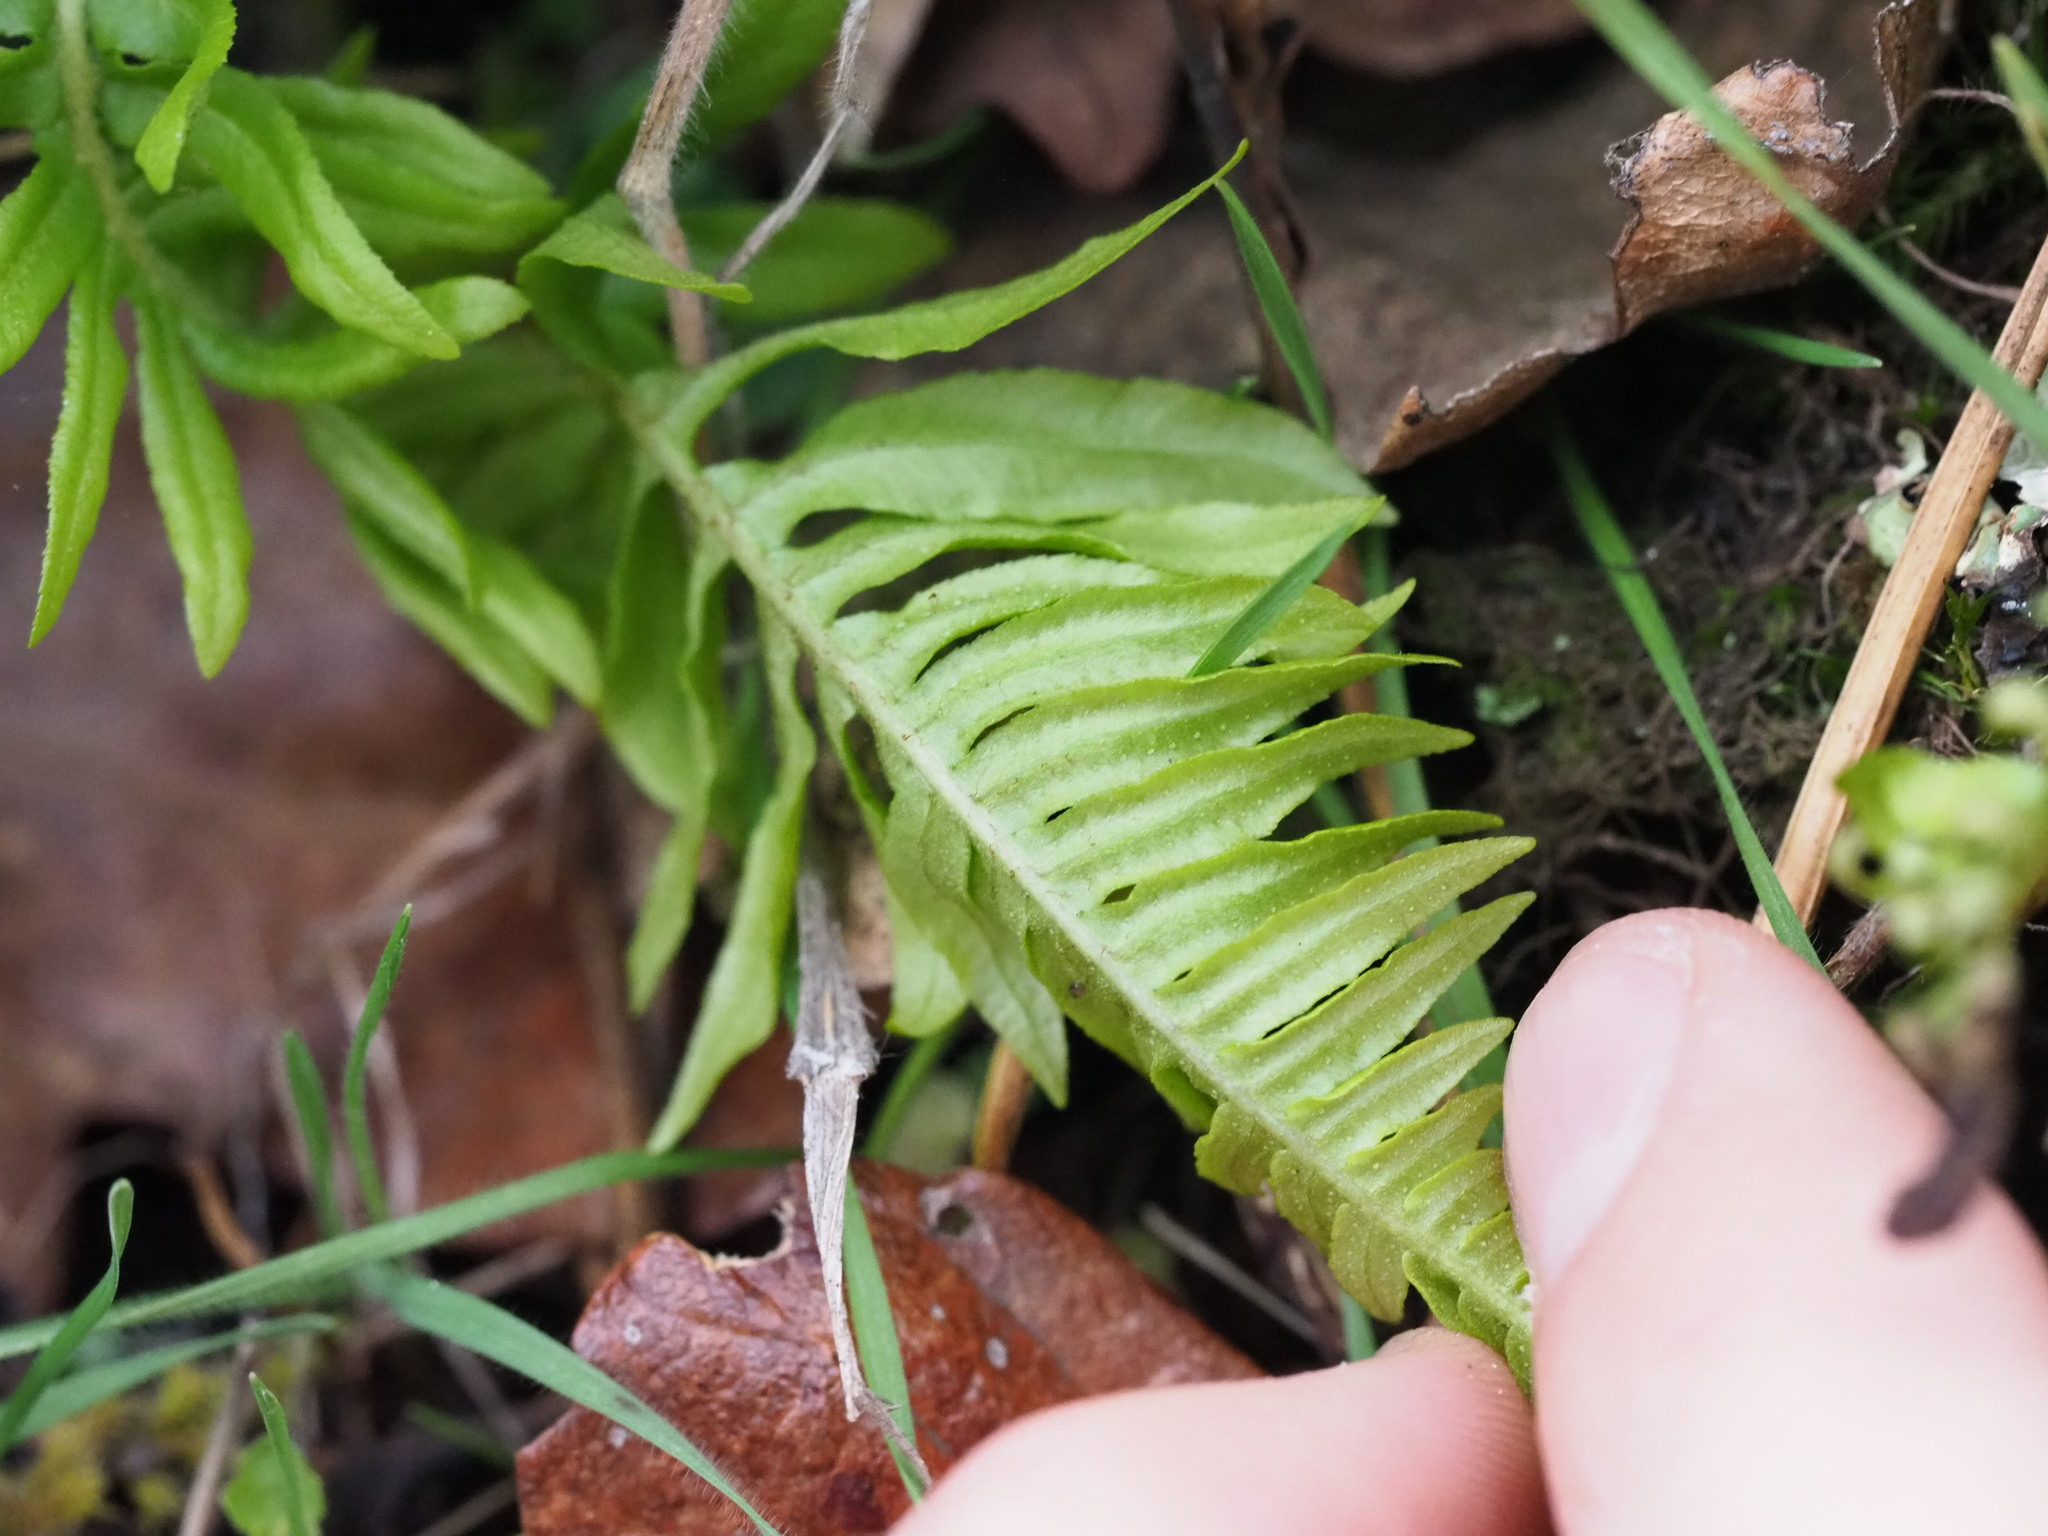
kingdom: Plantae
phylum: Tracheophyta
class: Polypodiopsida
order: Polypodiales
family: Polypodiaceae
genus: Polypodium
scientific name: Polypodium glycyrrhiza
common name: Licorice fern
